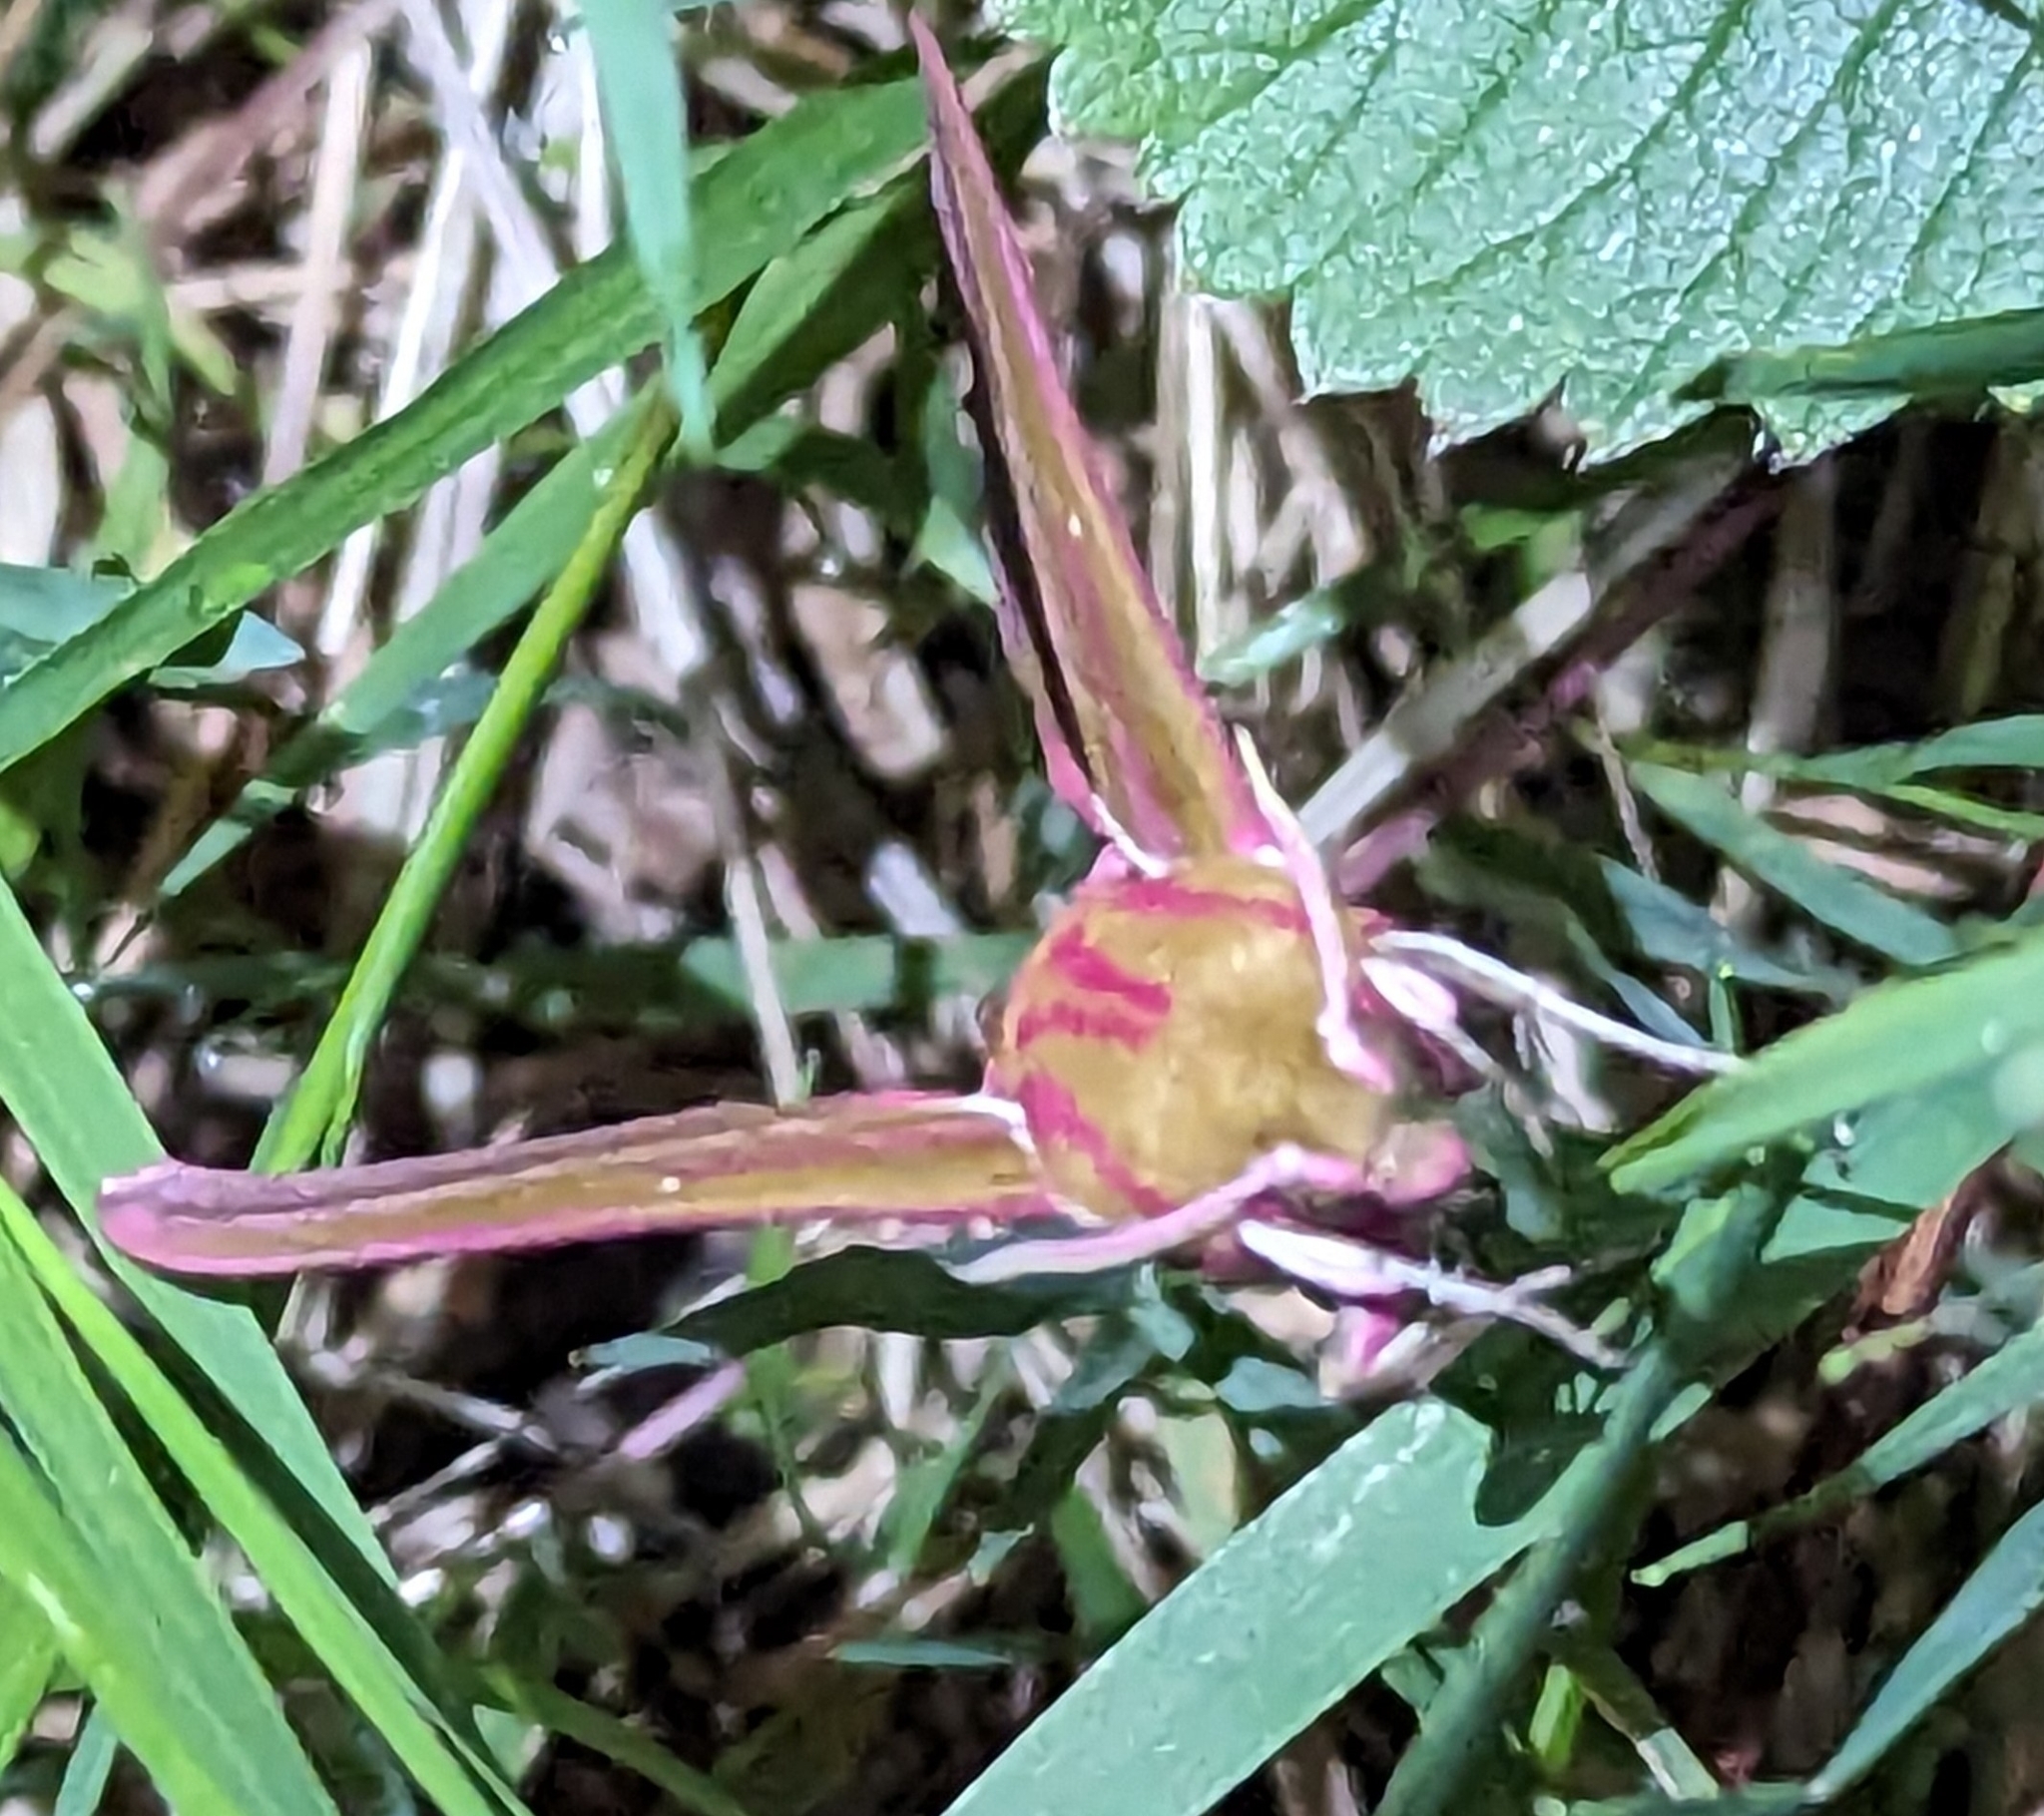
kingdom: Animalia
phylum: Arthropoda
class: Insecta
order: Lepidoptera
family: Sphingidae
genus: Deilephila
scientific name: Deilephila elpenor
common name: Elephant hawk-moth
